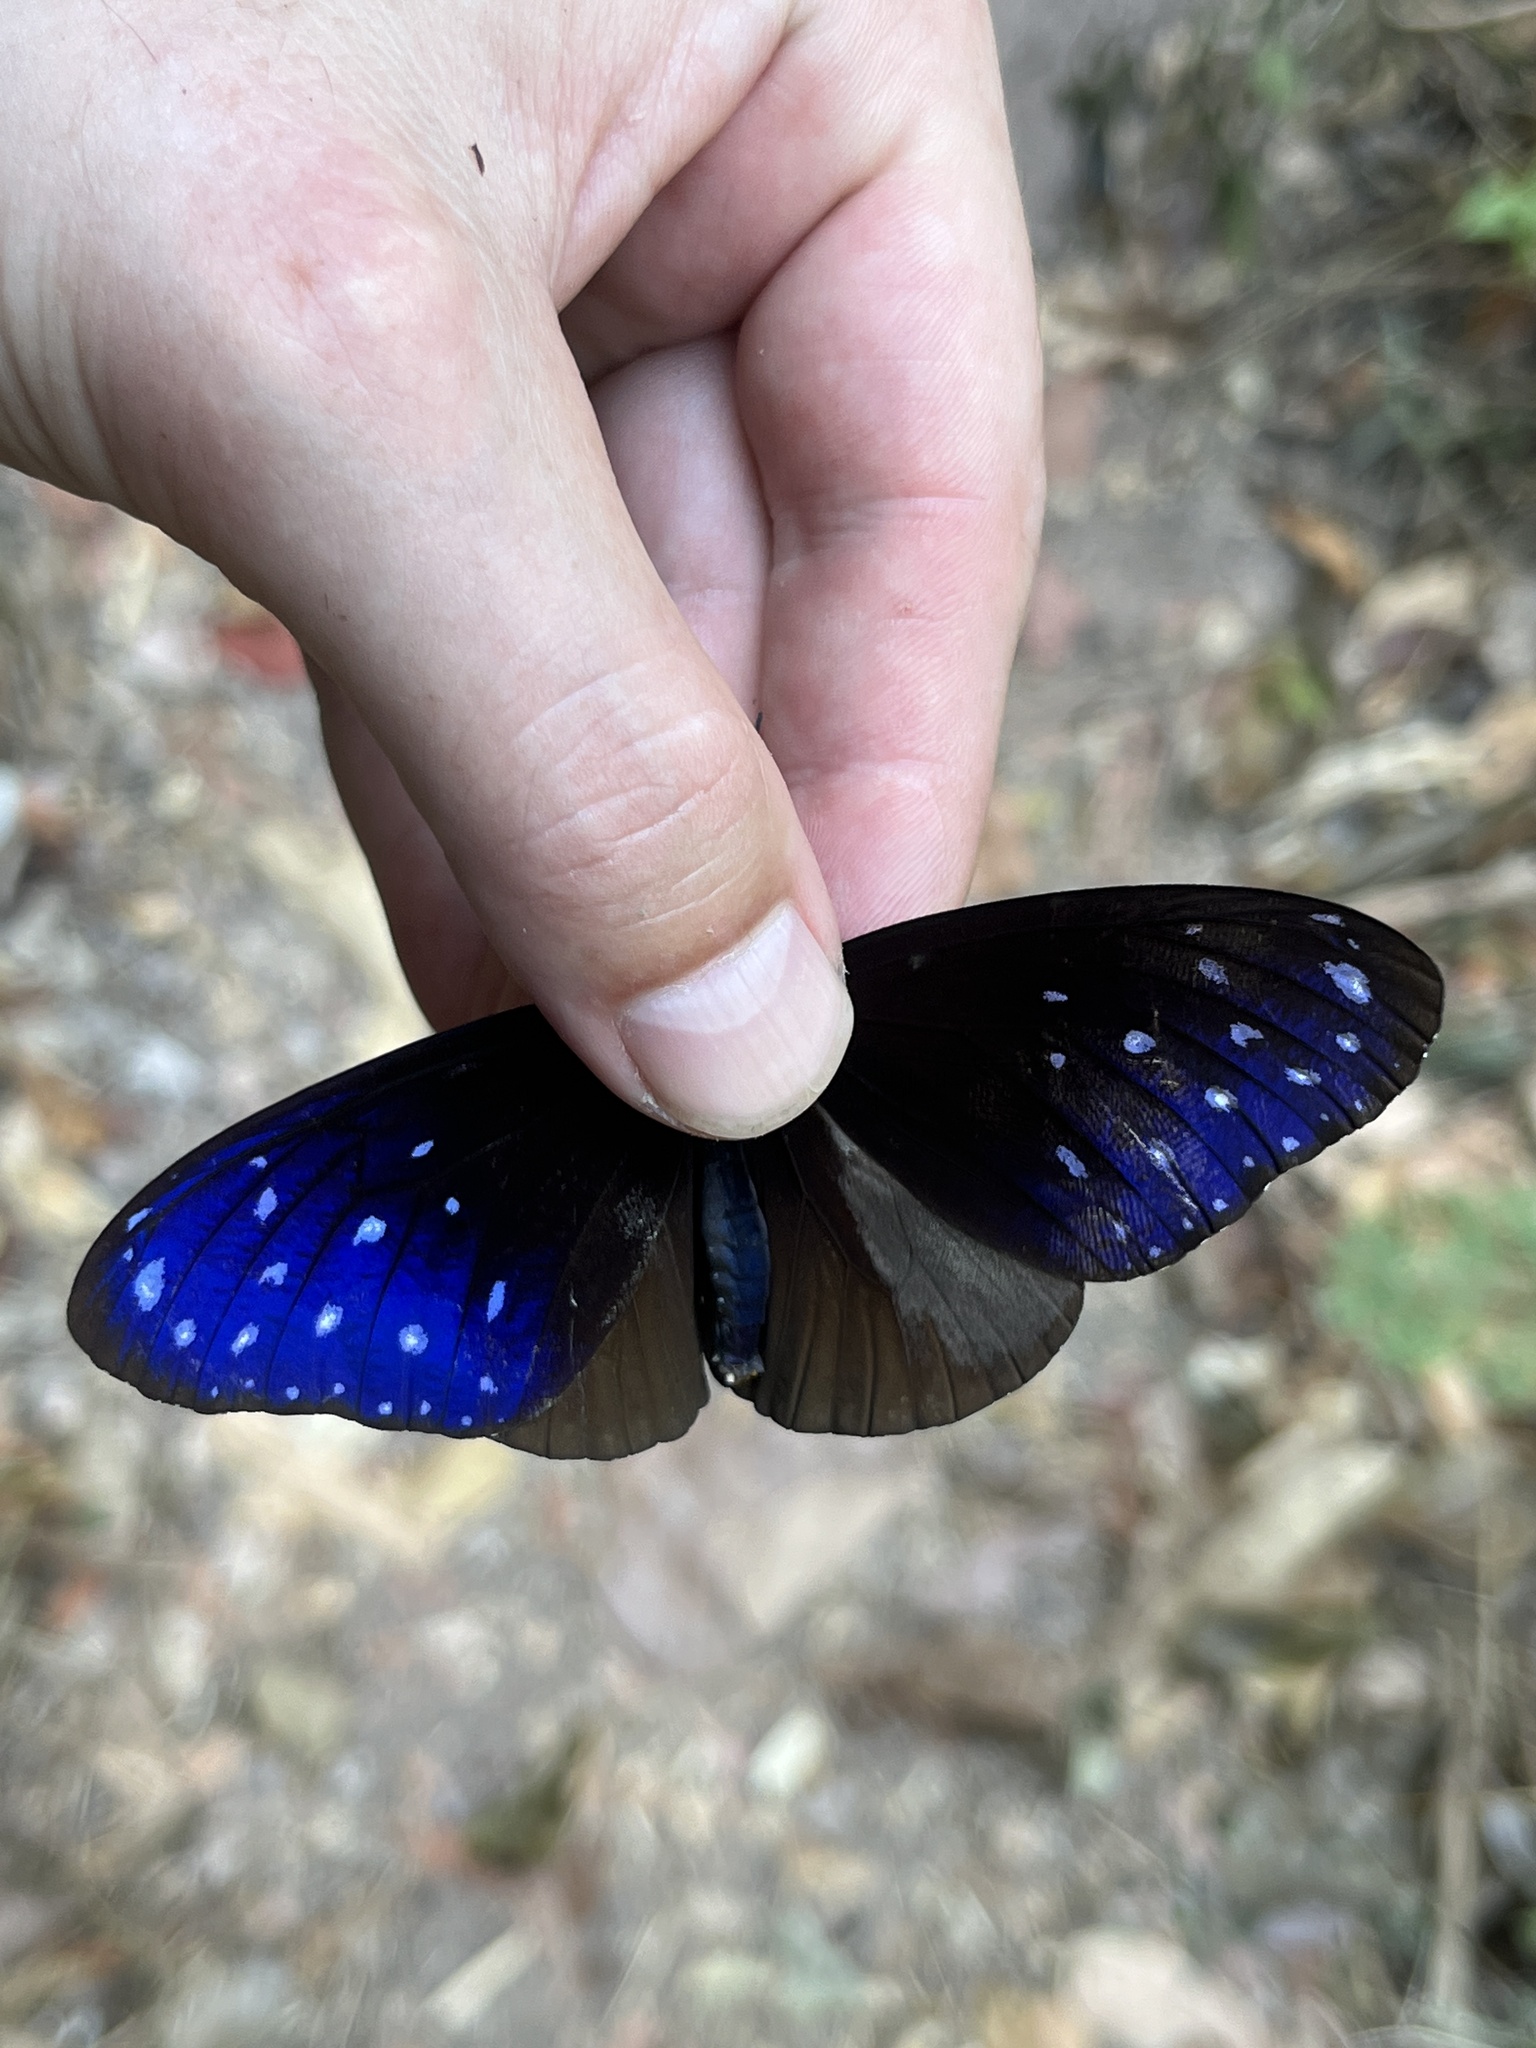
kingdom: Animalia
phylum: Arthropoda
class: Insecta
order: Lepidoptera
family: Nymphalidae
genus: Euploea
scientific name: Euploea mulciber
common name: Striped blue crow butterfly
